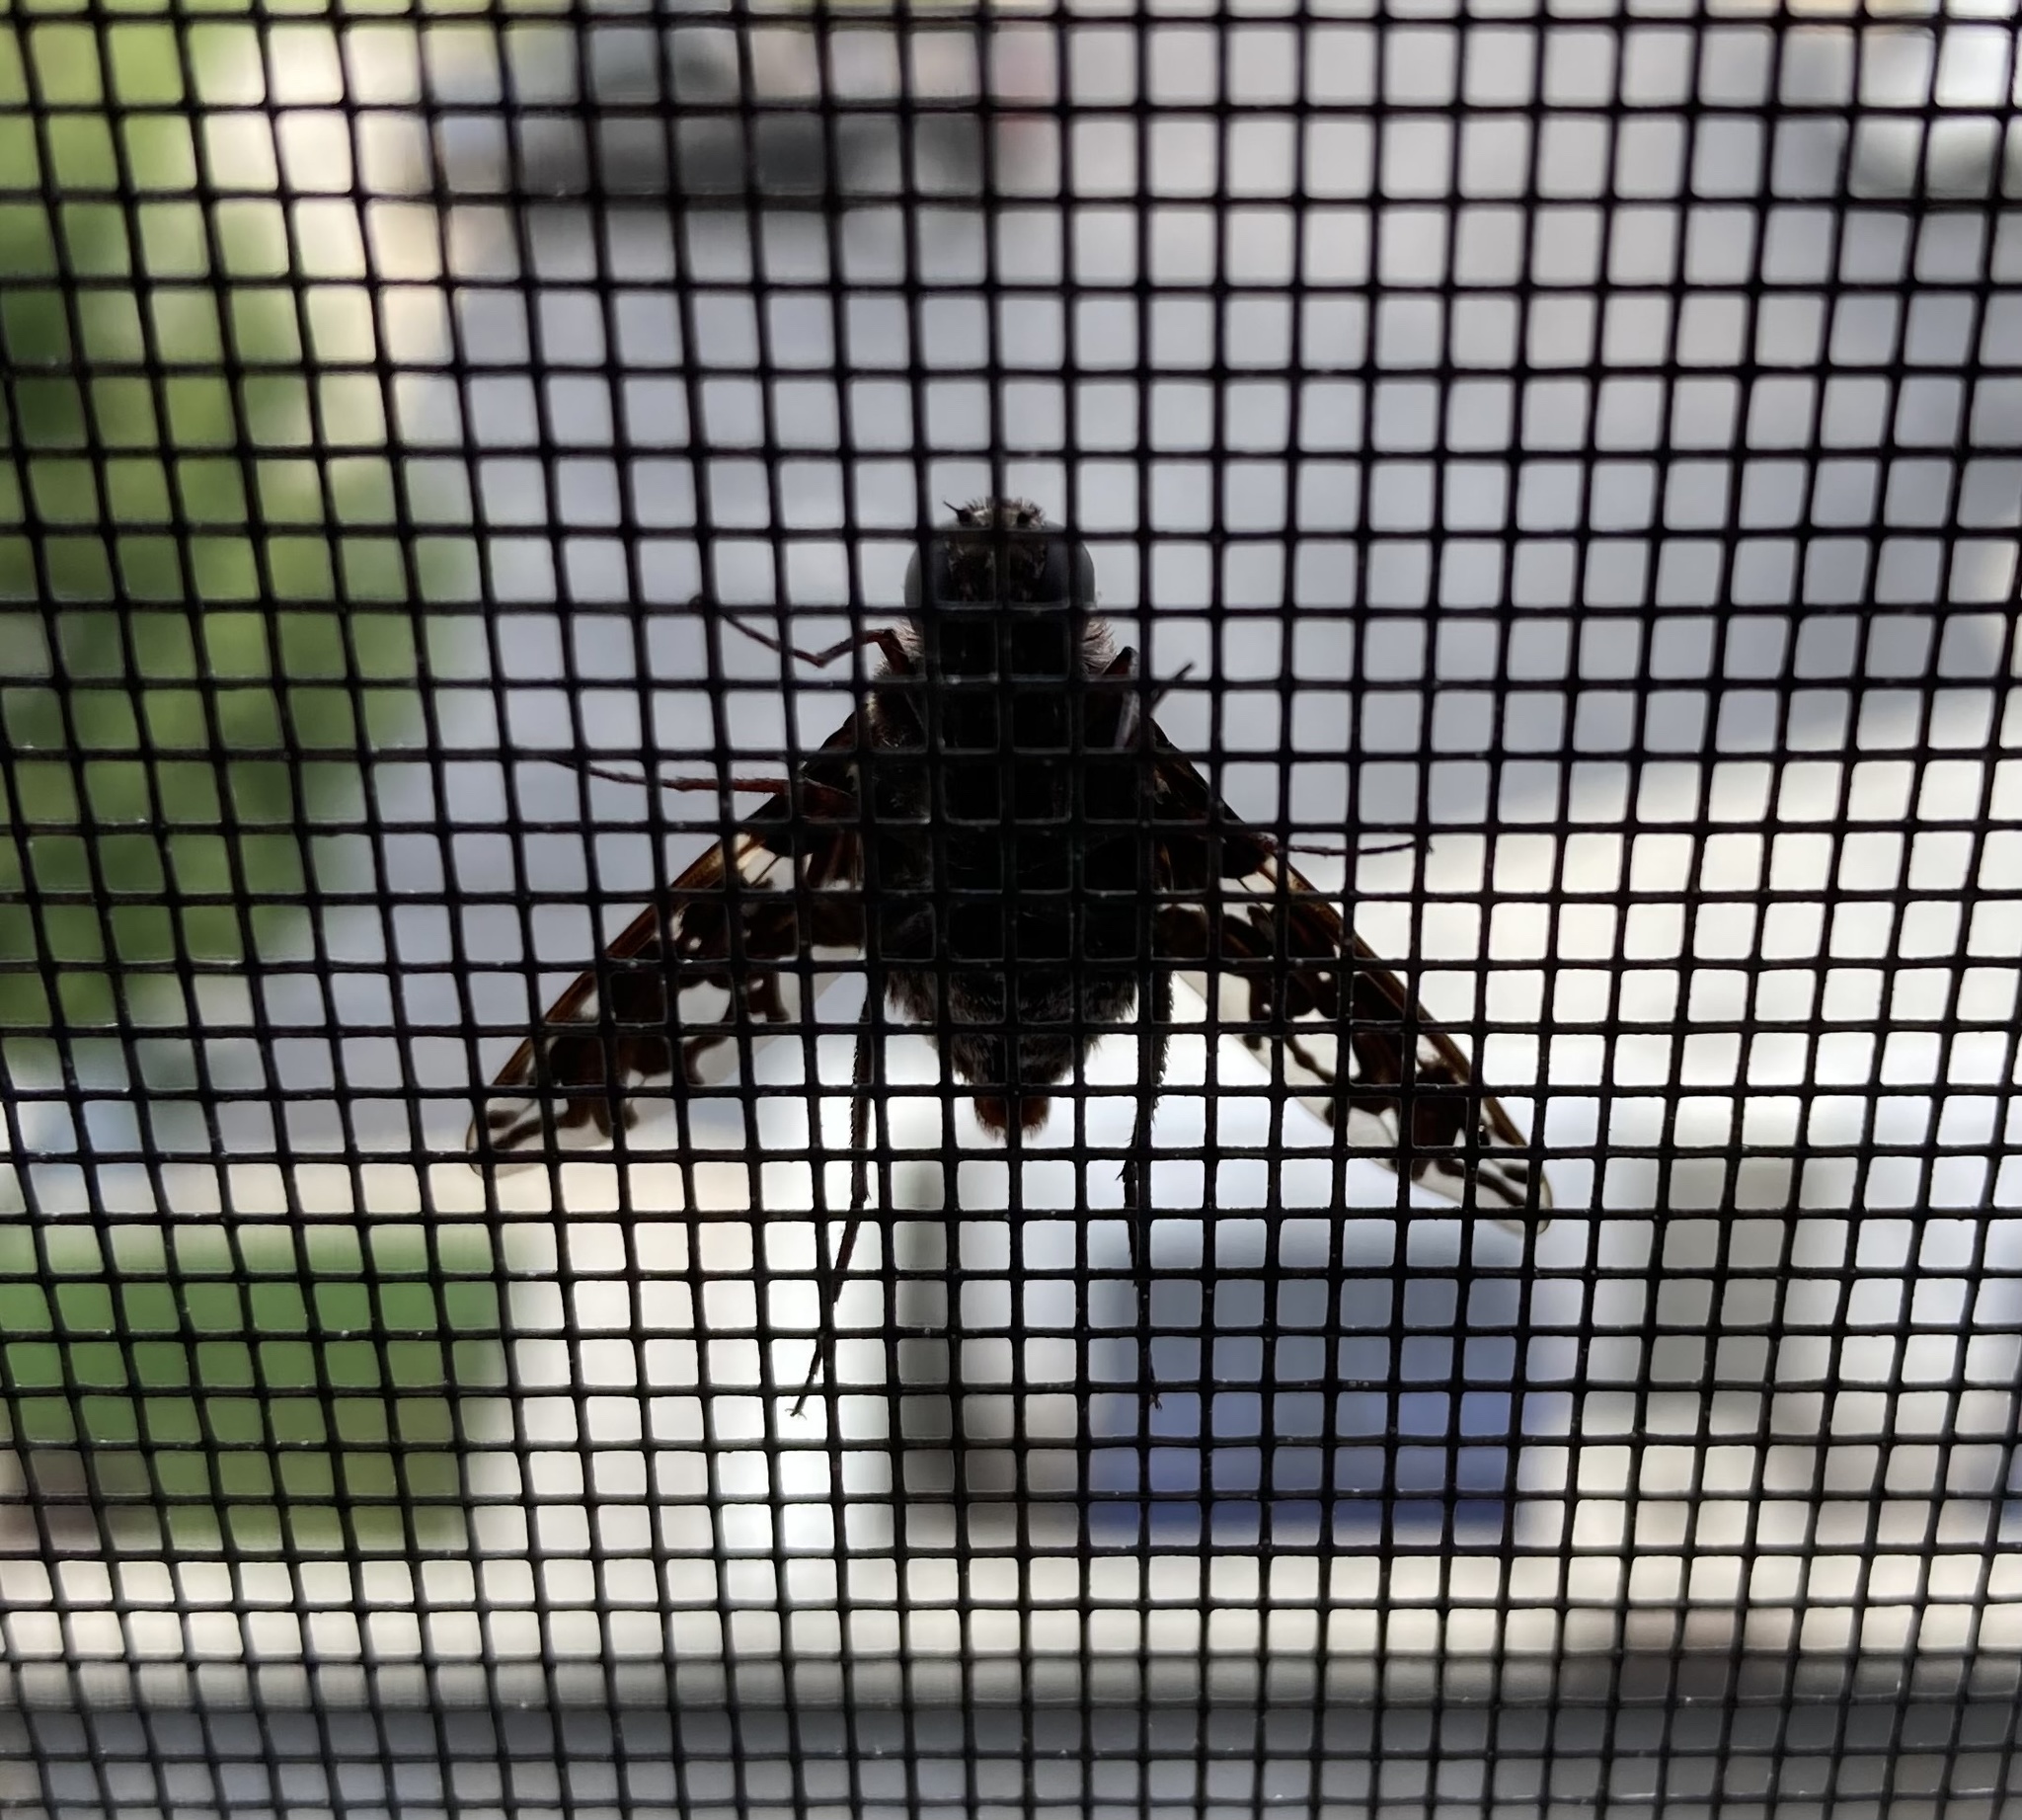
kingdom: Animalia
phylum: Arthropoda
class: Insecta
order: Diptera
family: Bombyliidae
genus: Xenox
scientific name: Xenox tigrinus
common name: Tiger bee fly
